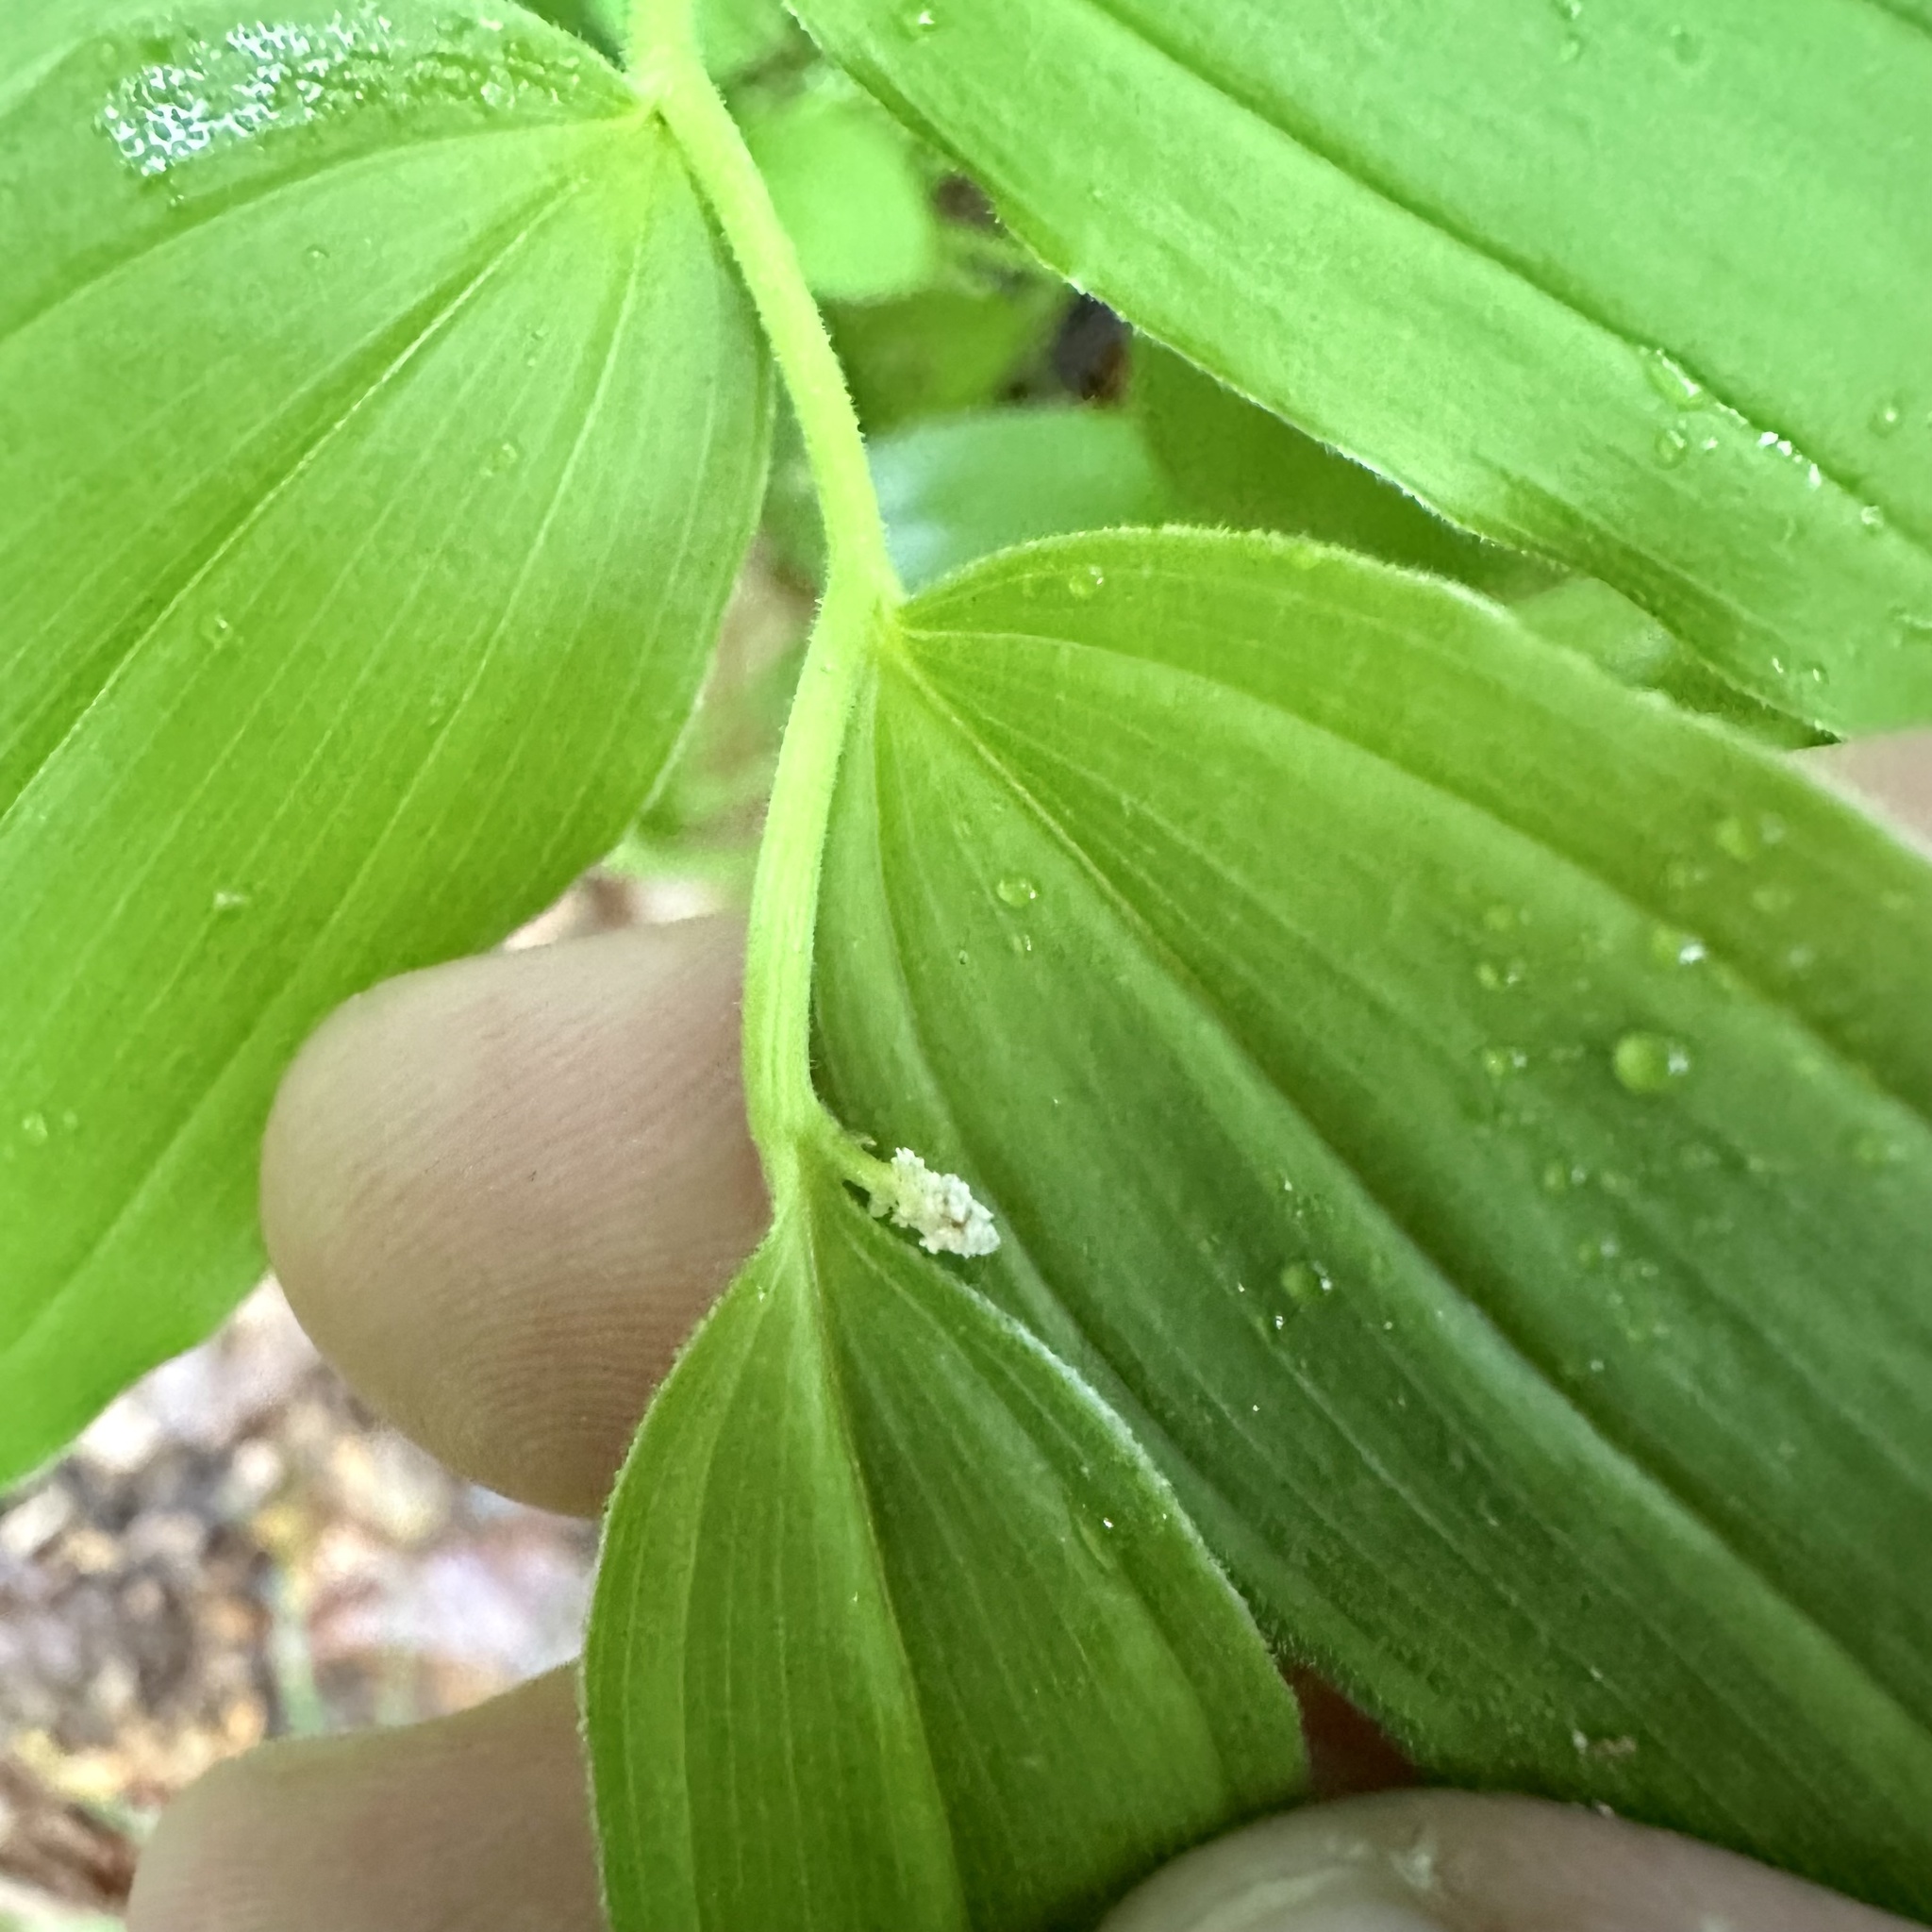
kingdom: Plantae
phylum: Tracheophyta
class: Liliopsida
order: Asparagales
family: Asparagaceae
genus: Maianthemum
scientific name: Maianthemum racemosum
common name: False spikenard
